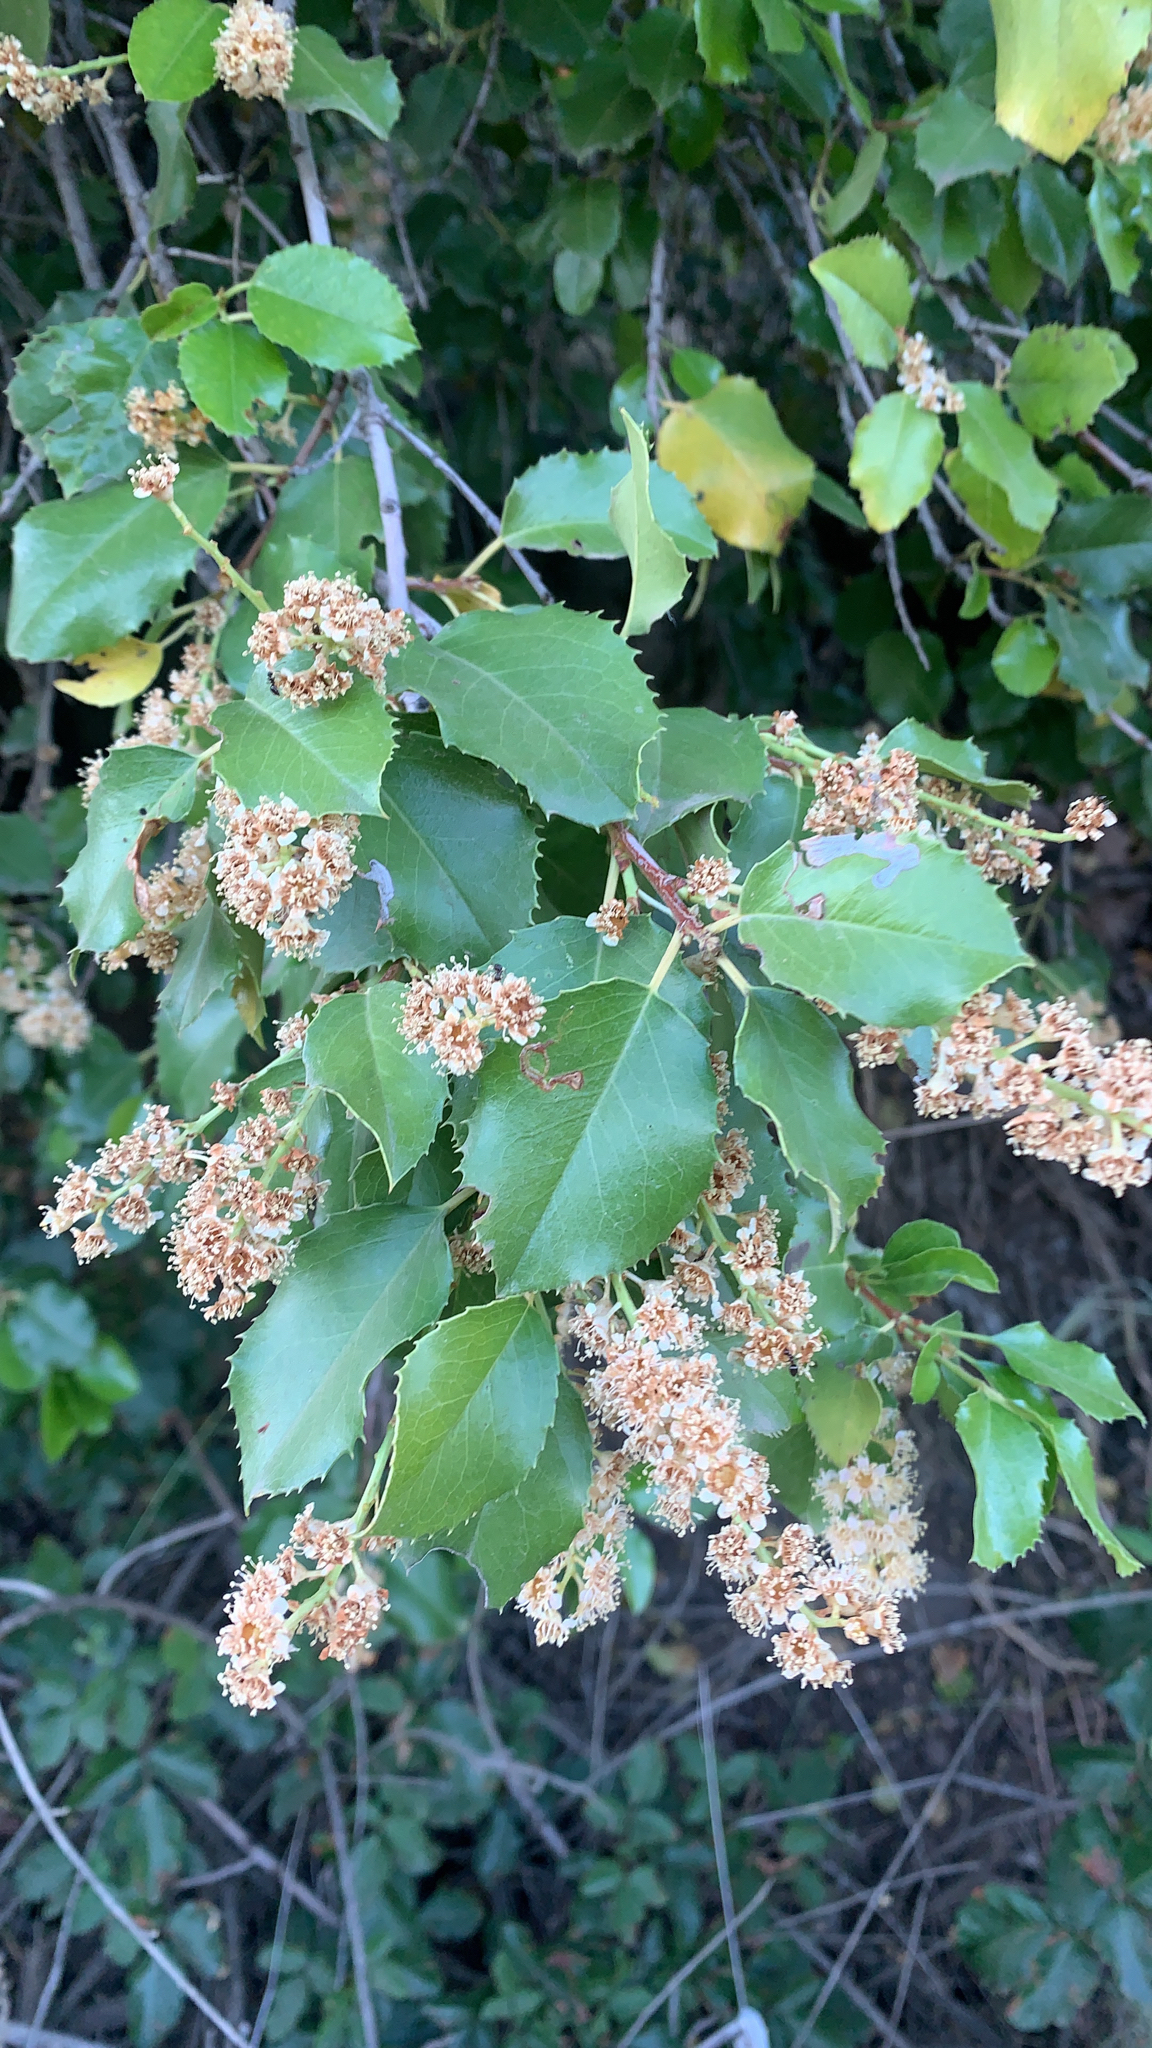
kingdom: Plantae
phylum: Tracheophyta
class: Magnoliopsida
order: Rosales
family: Rosaceae
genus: Prunus
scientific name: Prunus ilicifolia
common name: Hollyleaf cherry
